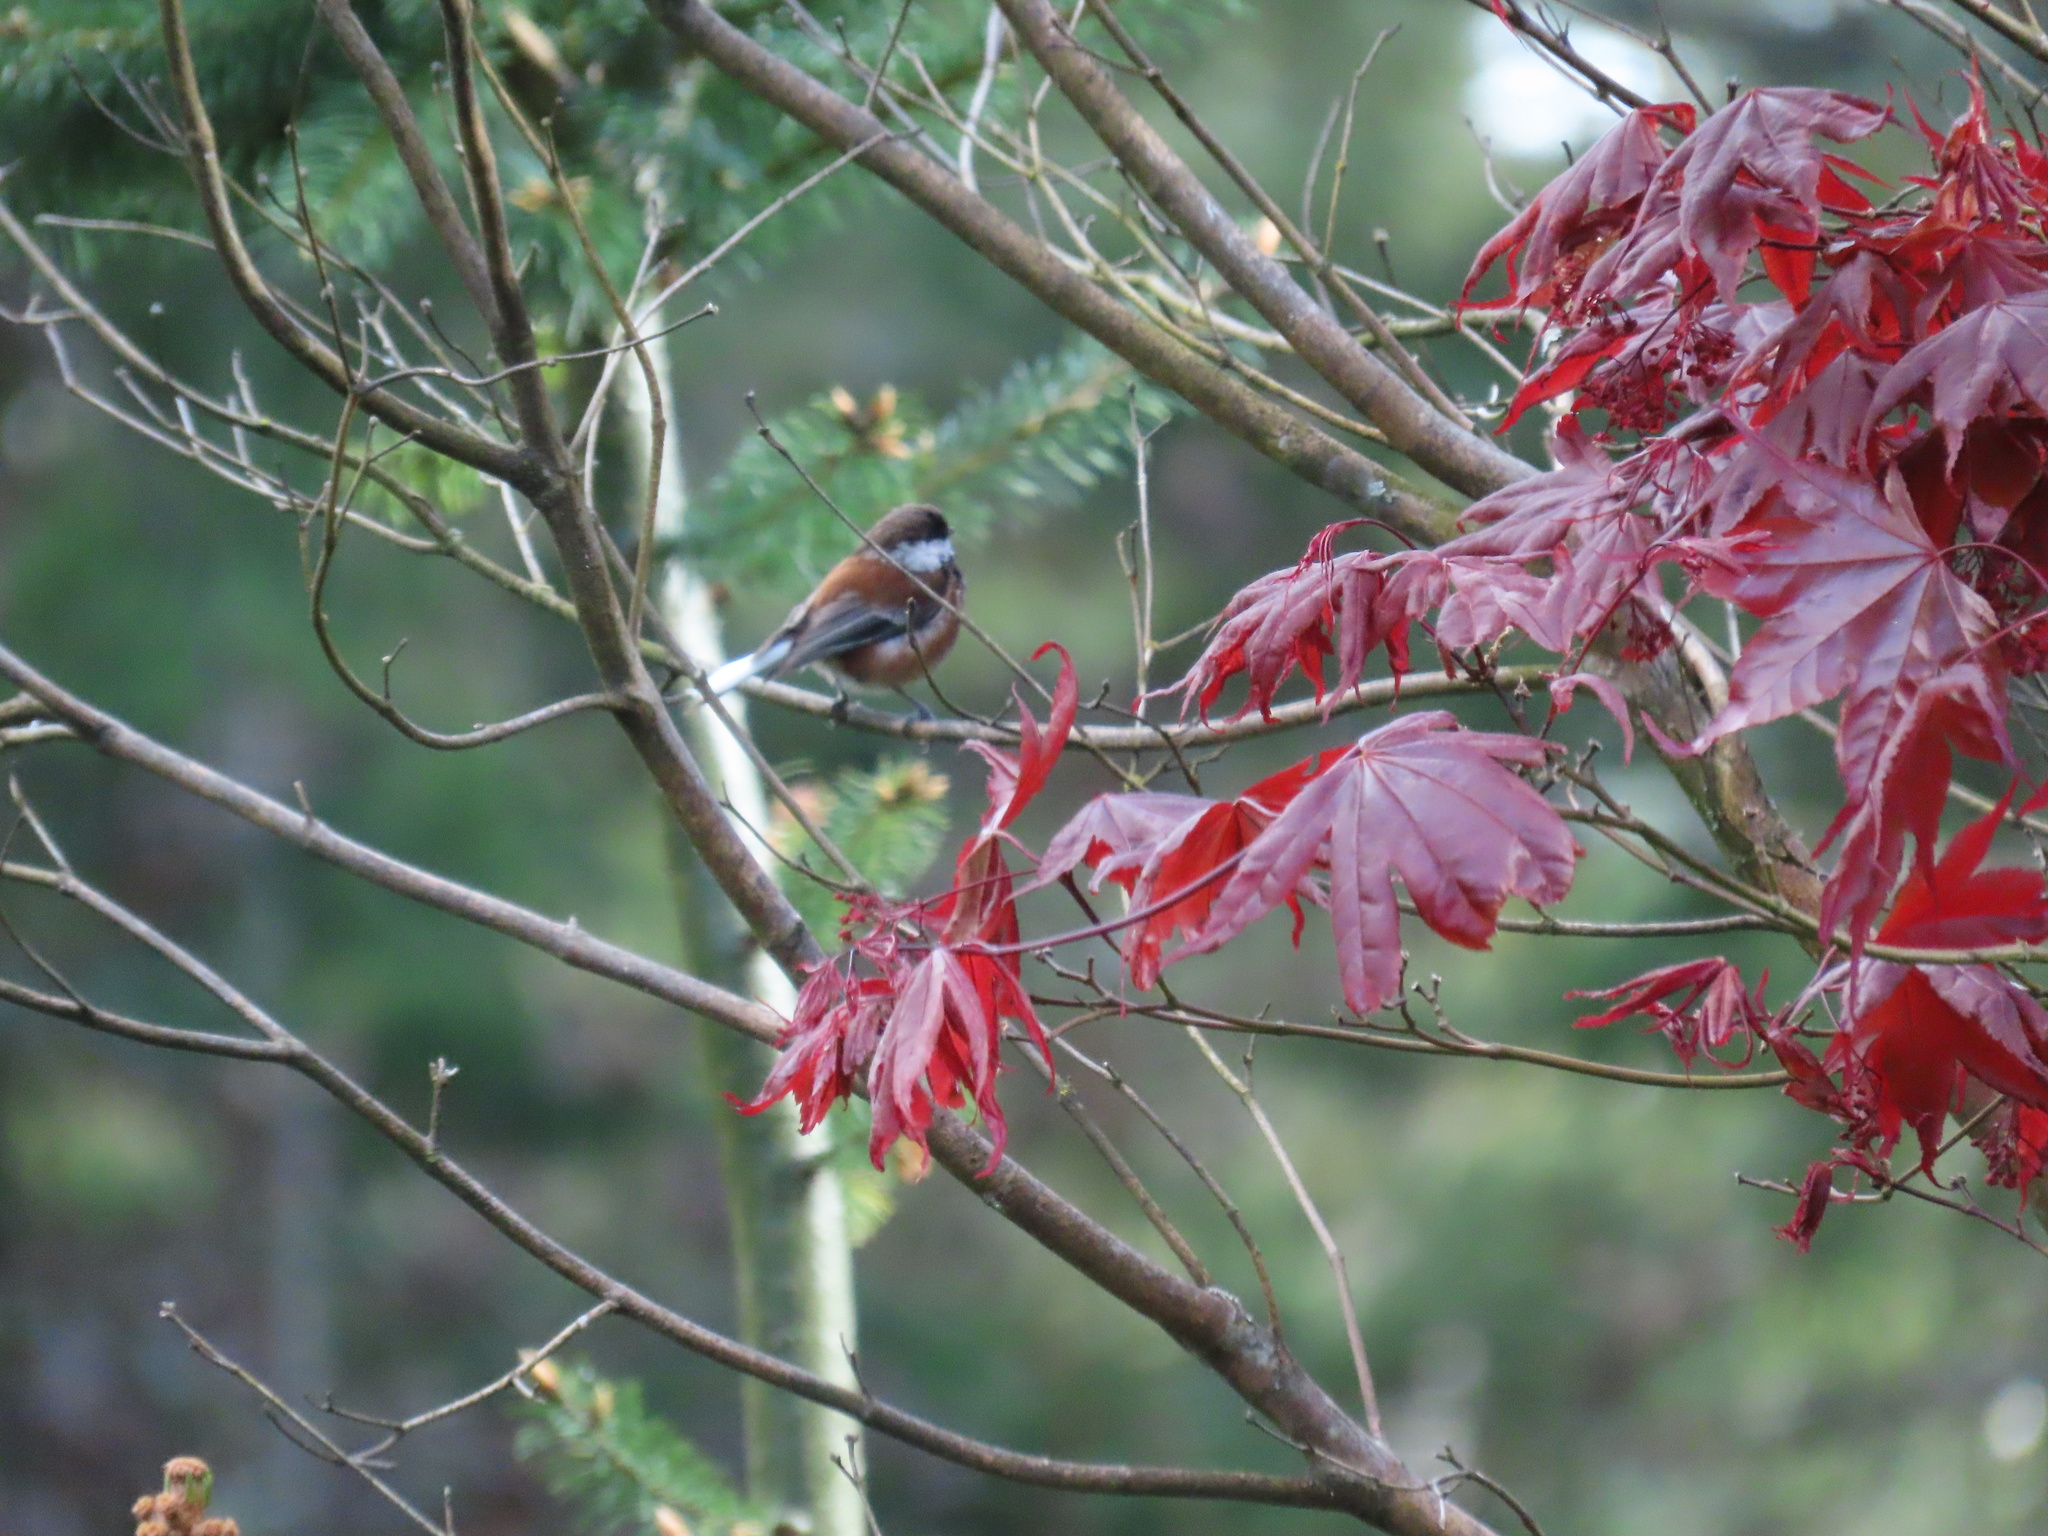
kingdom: Animalia
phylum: Chordata
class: Aves
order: Passeriformes
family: Paridae
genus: Poecile
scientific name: Poecile rufescens
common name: Chestnut-backed chickadee
